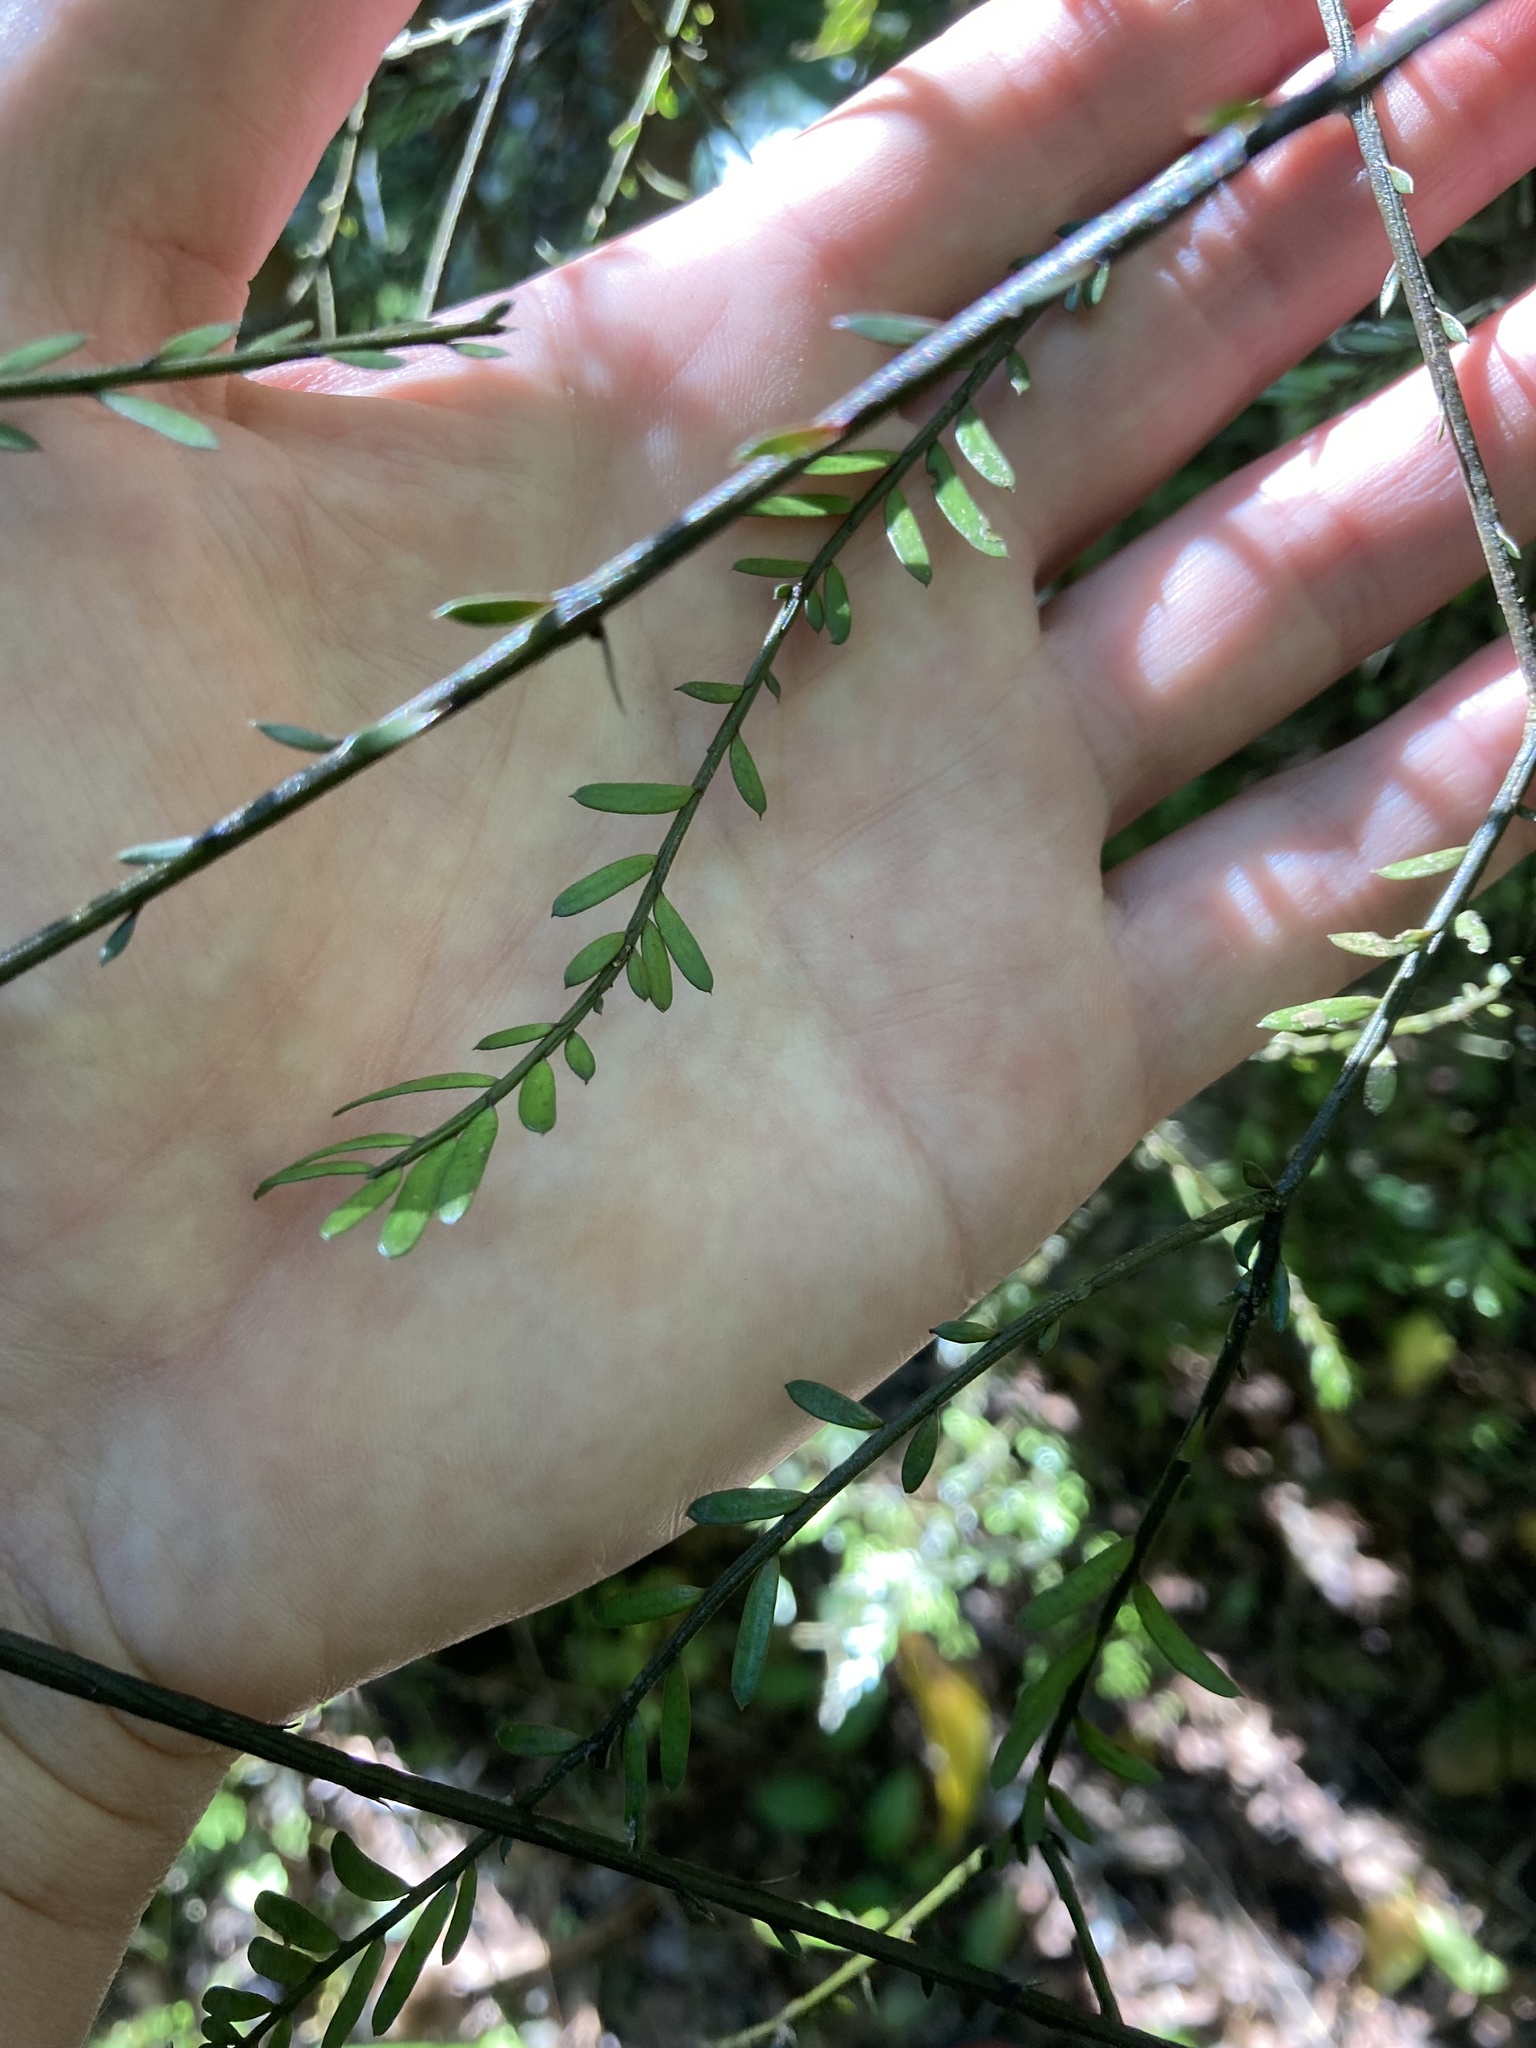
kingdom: Plantae
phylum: Tracheophyta
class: Pinopsida
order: Pinales
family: Podocarpaceae
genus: Prumnopitys
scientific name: Prumnopitys taxifolia
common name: Matai
